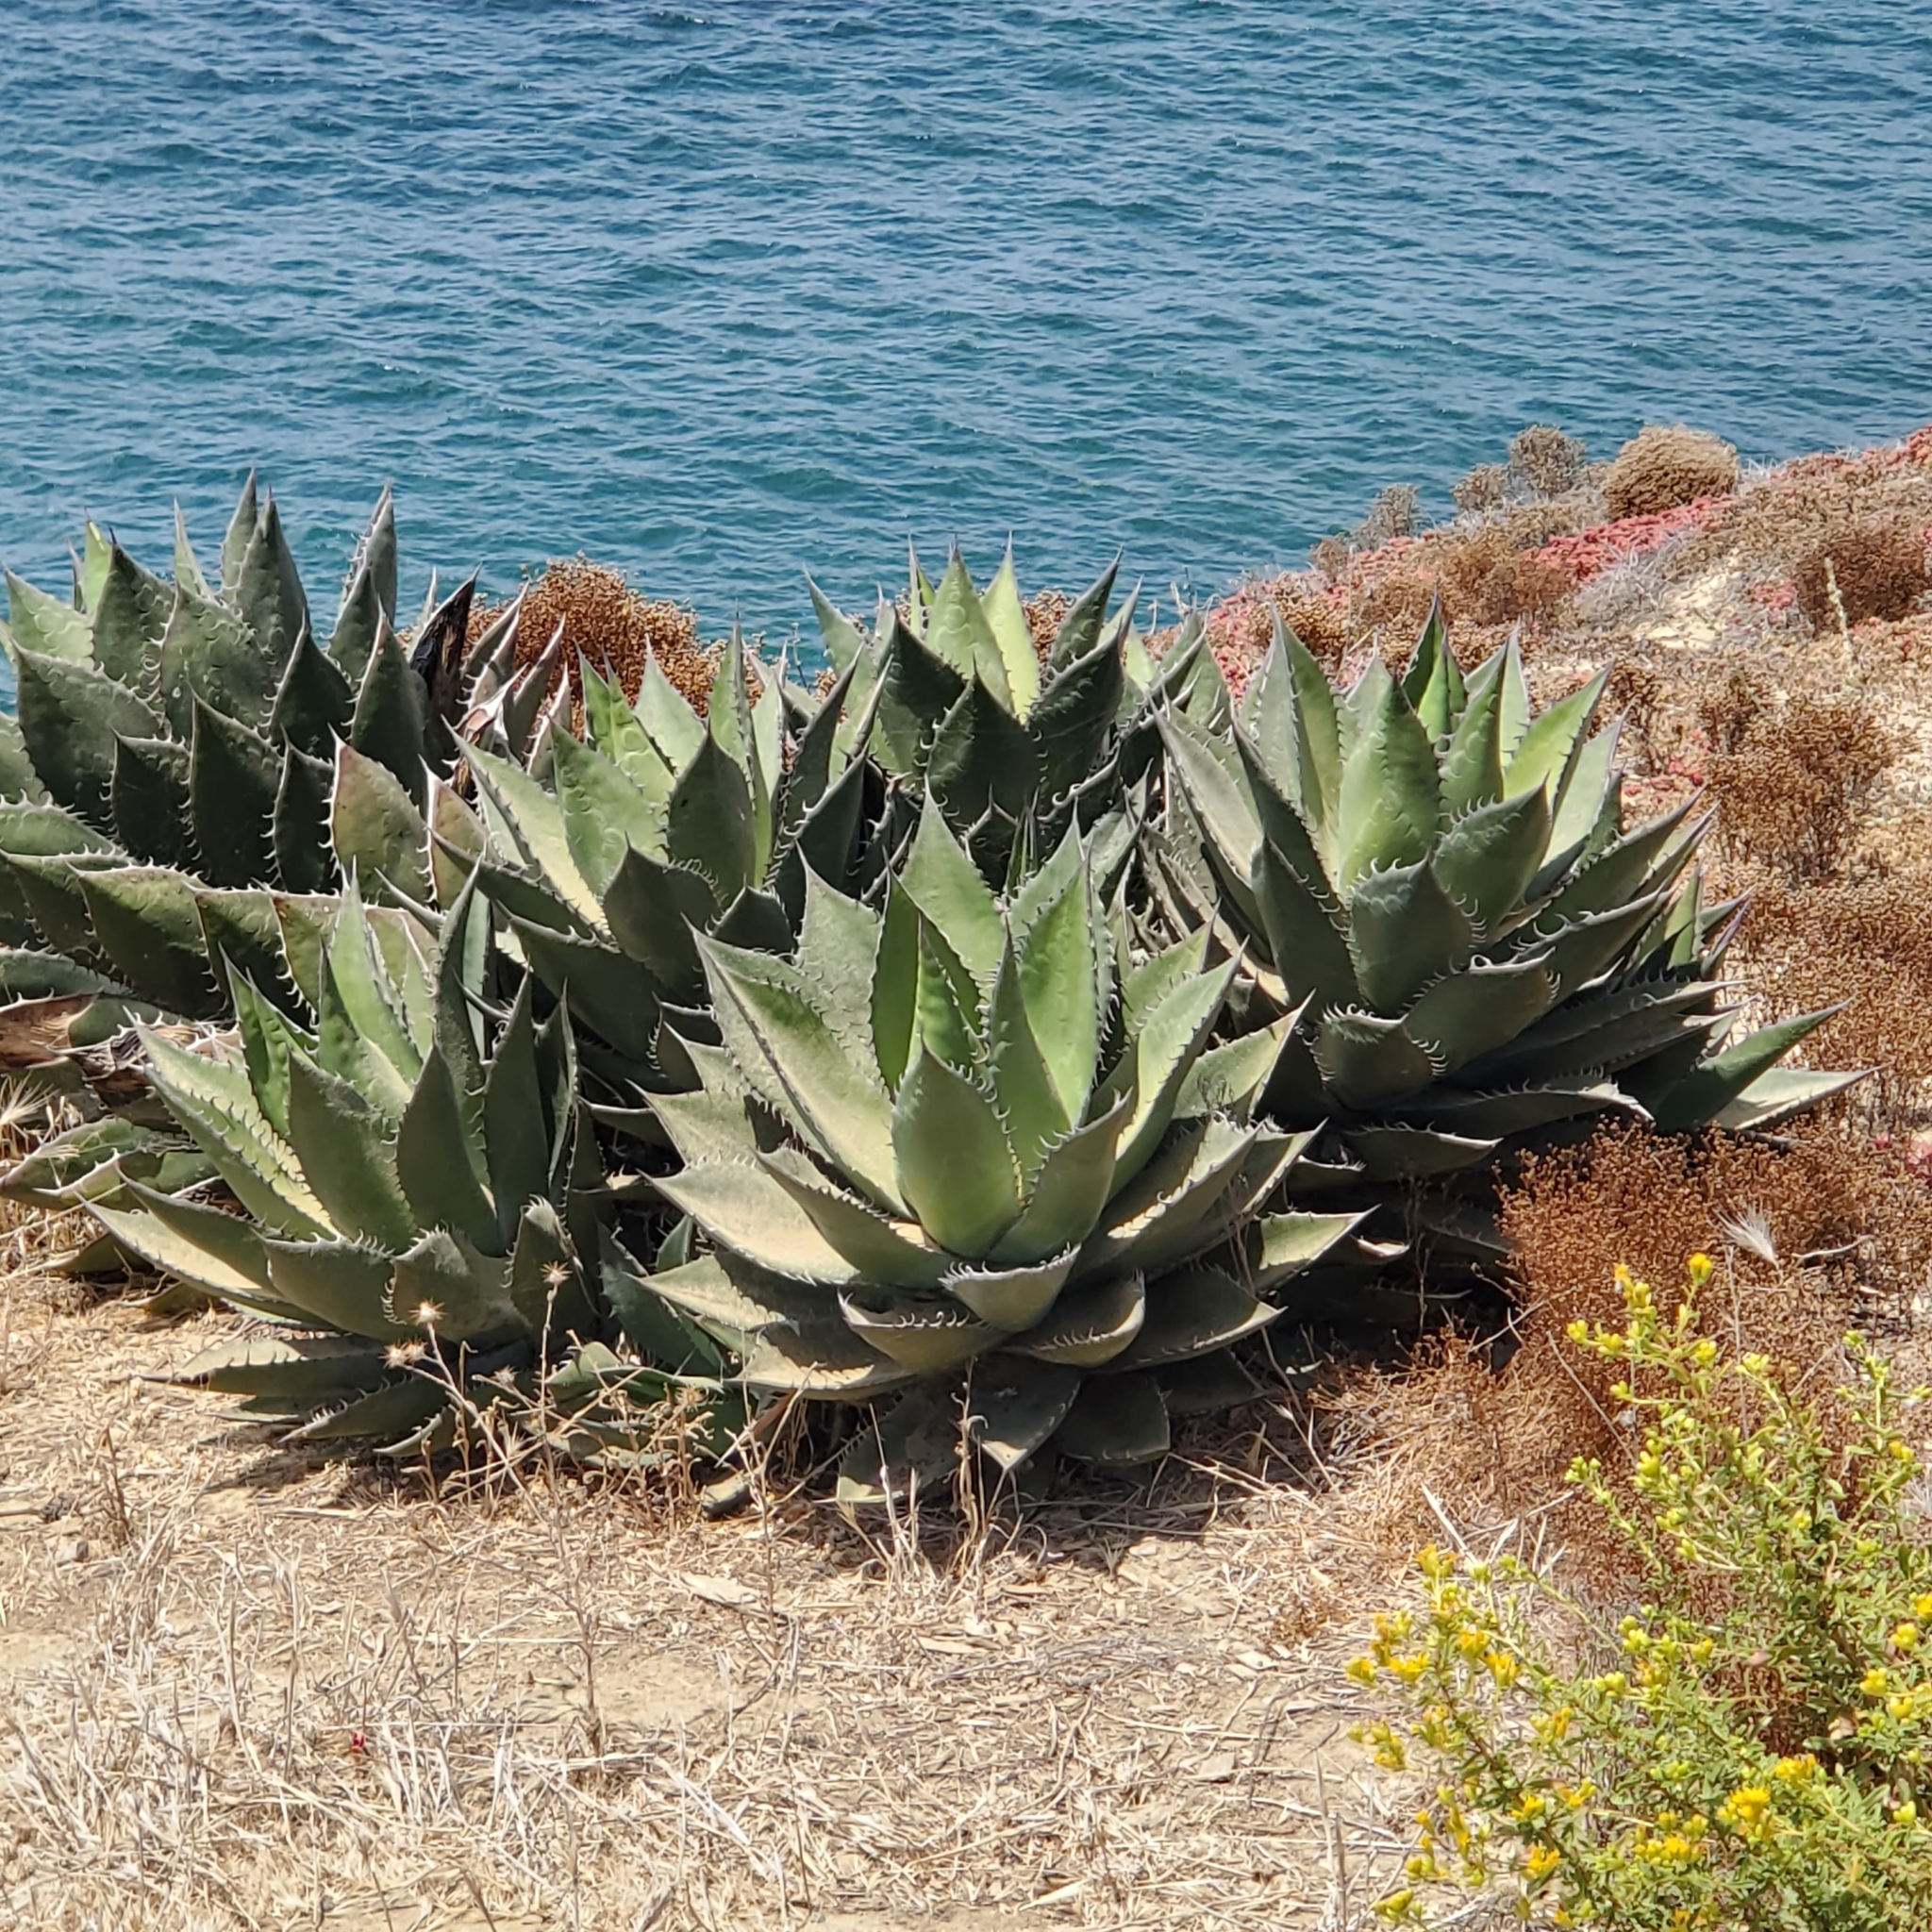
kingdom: Plantae
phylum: Tracheophyta
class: Liliopsida
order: Asparagales
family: Asparagaceae
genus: Agave
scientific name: Agave shawii
